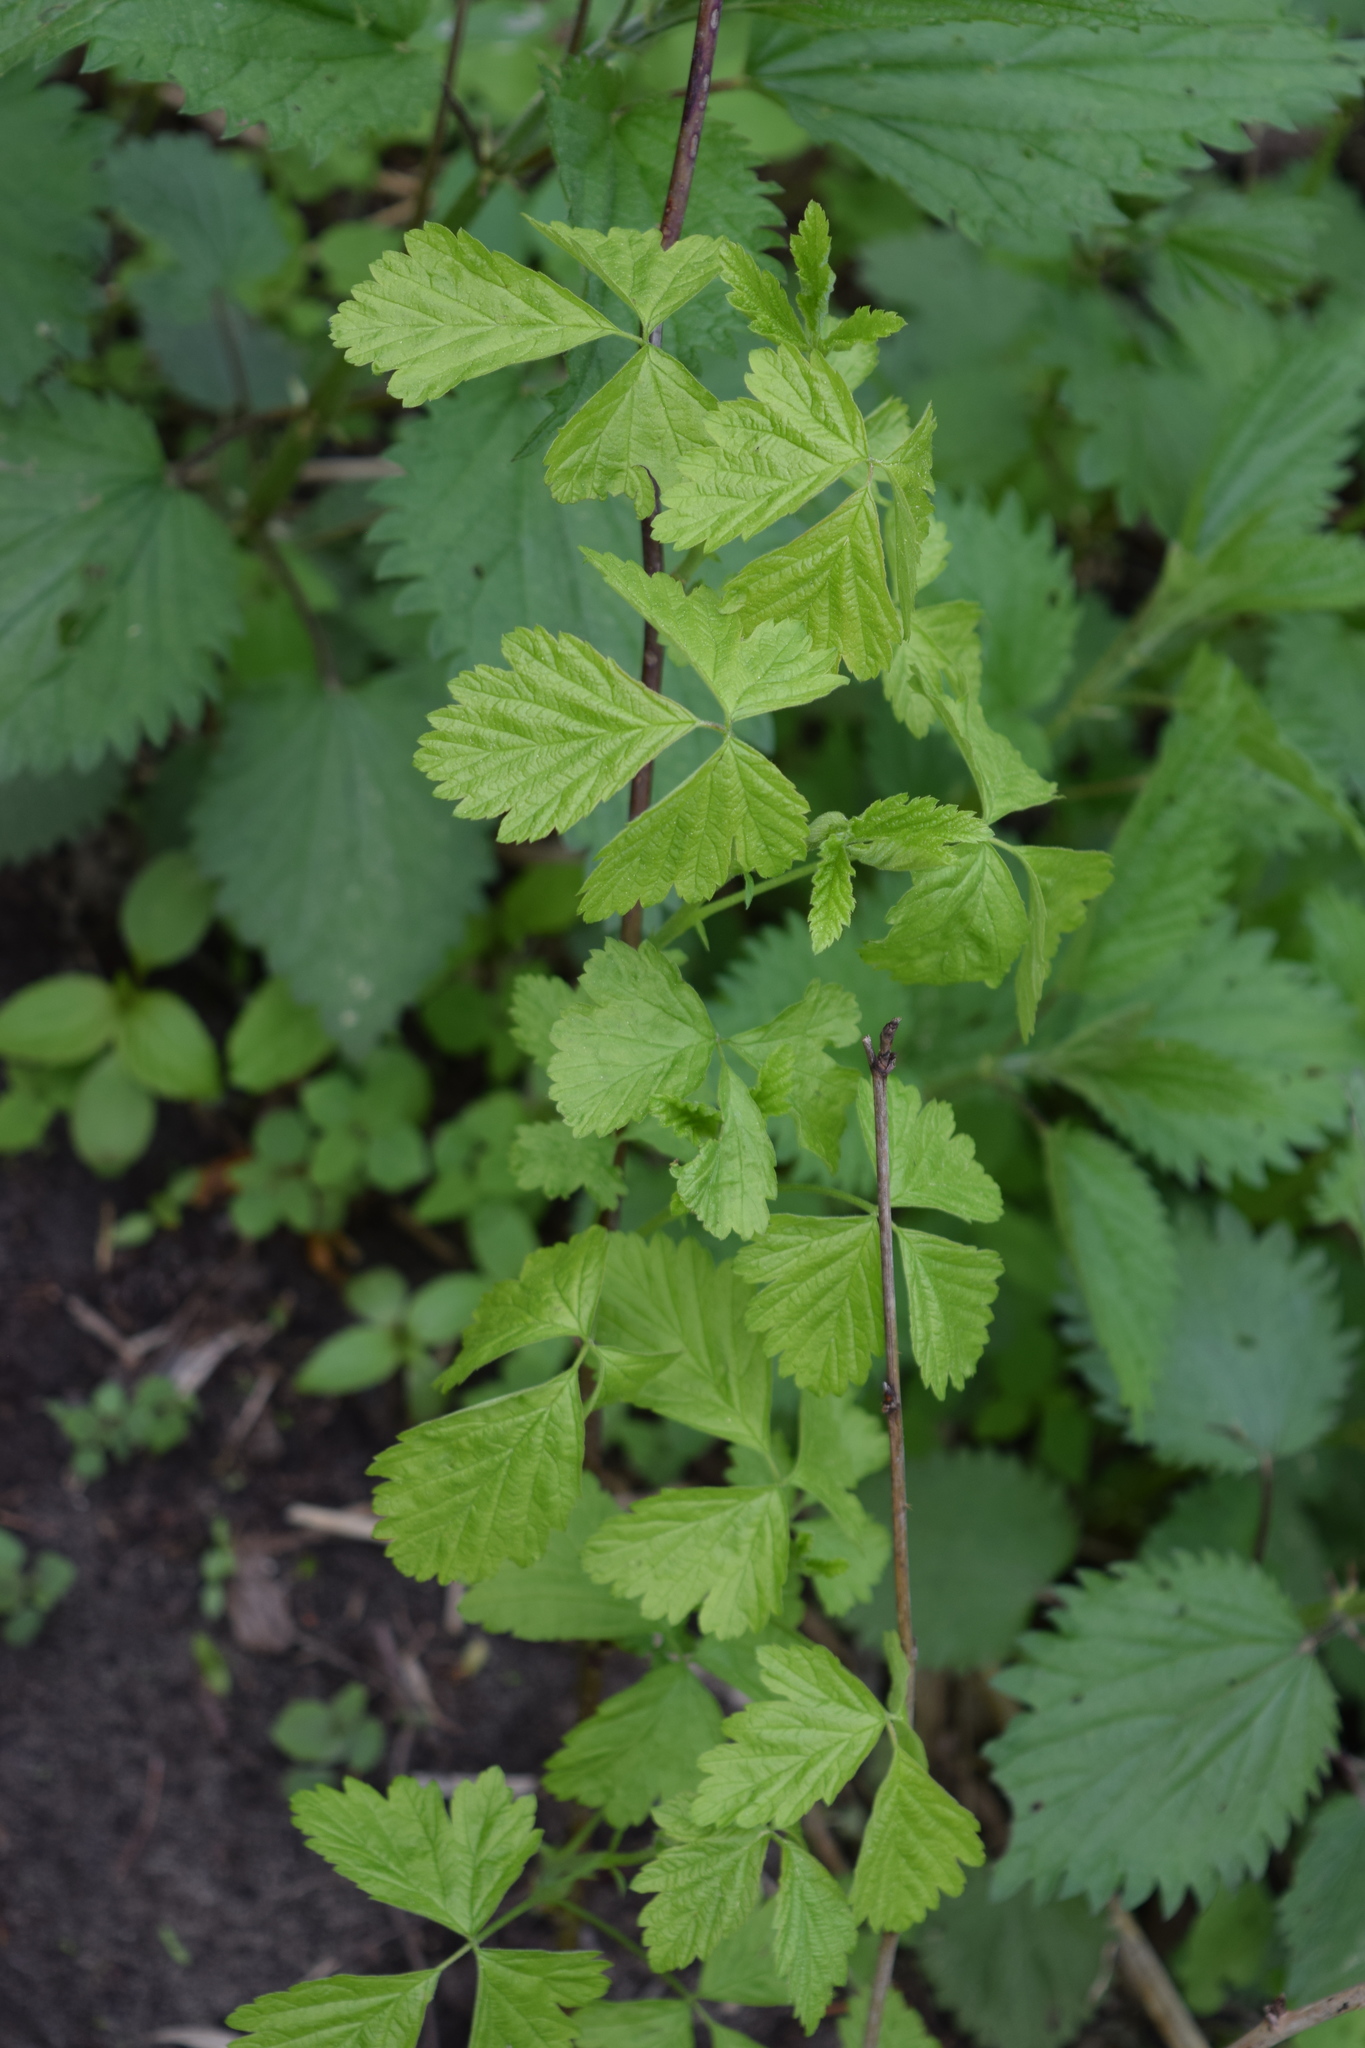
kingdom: Plantae
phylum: Tracheophyta
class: Magnoliopsida
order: Rosales
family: Rosaceae
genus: Rubus
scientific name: Rubus caesius
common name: Dewberry
